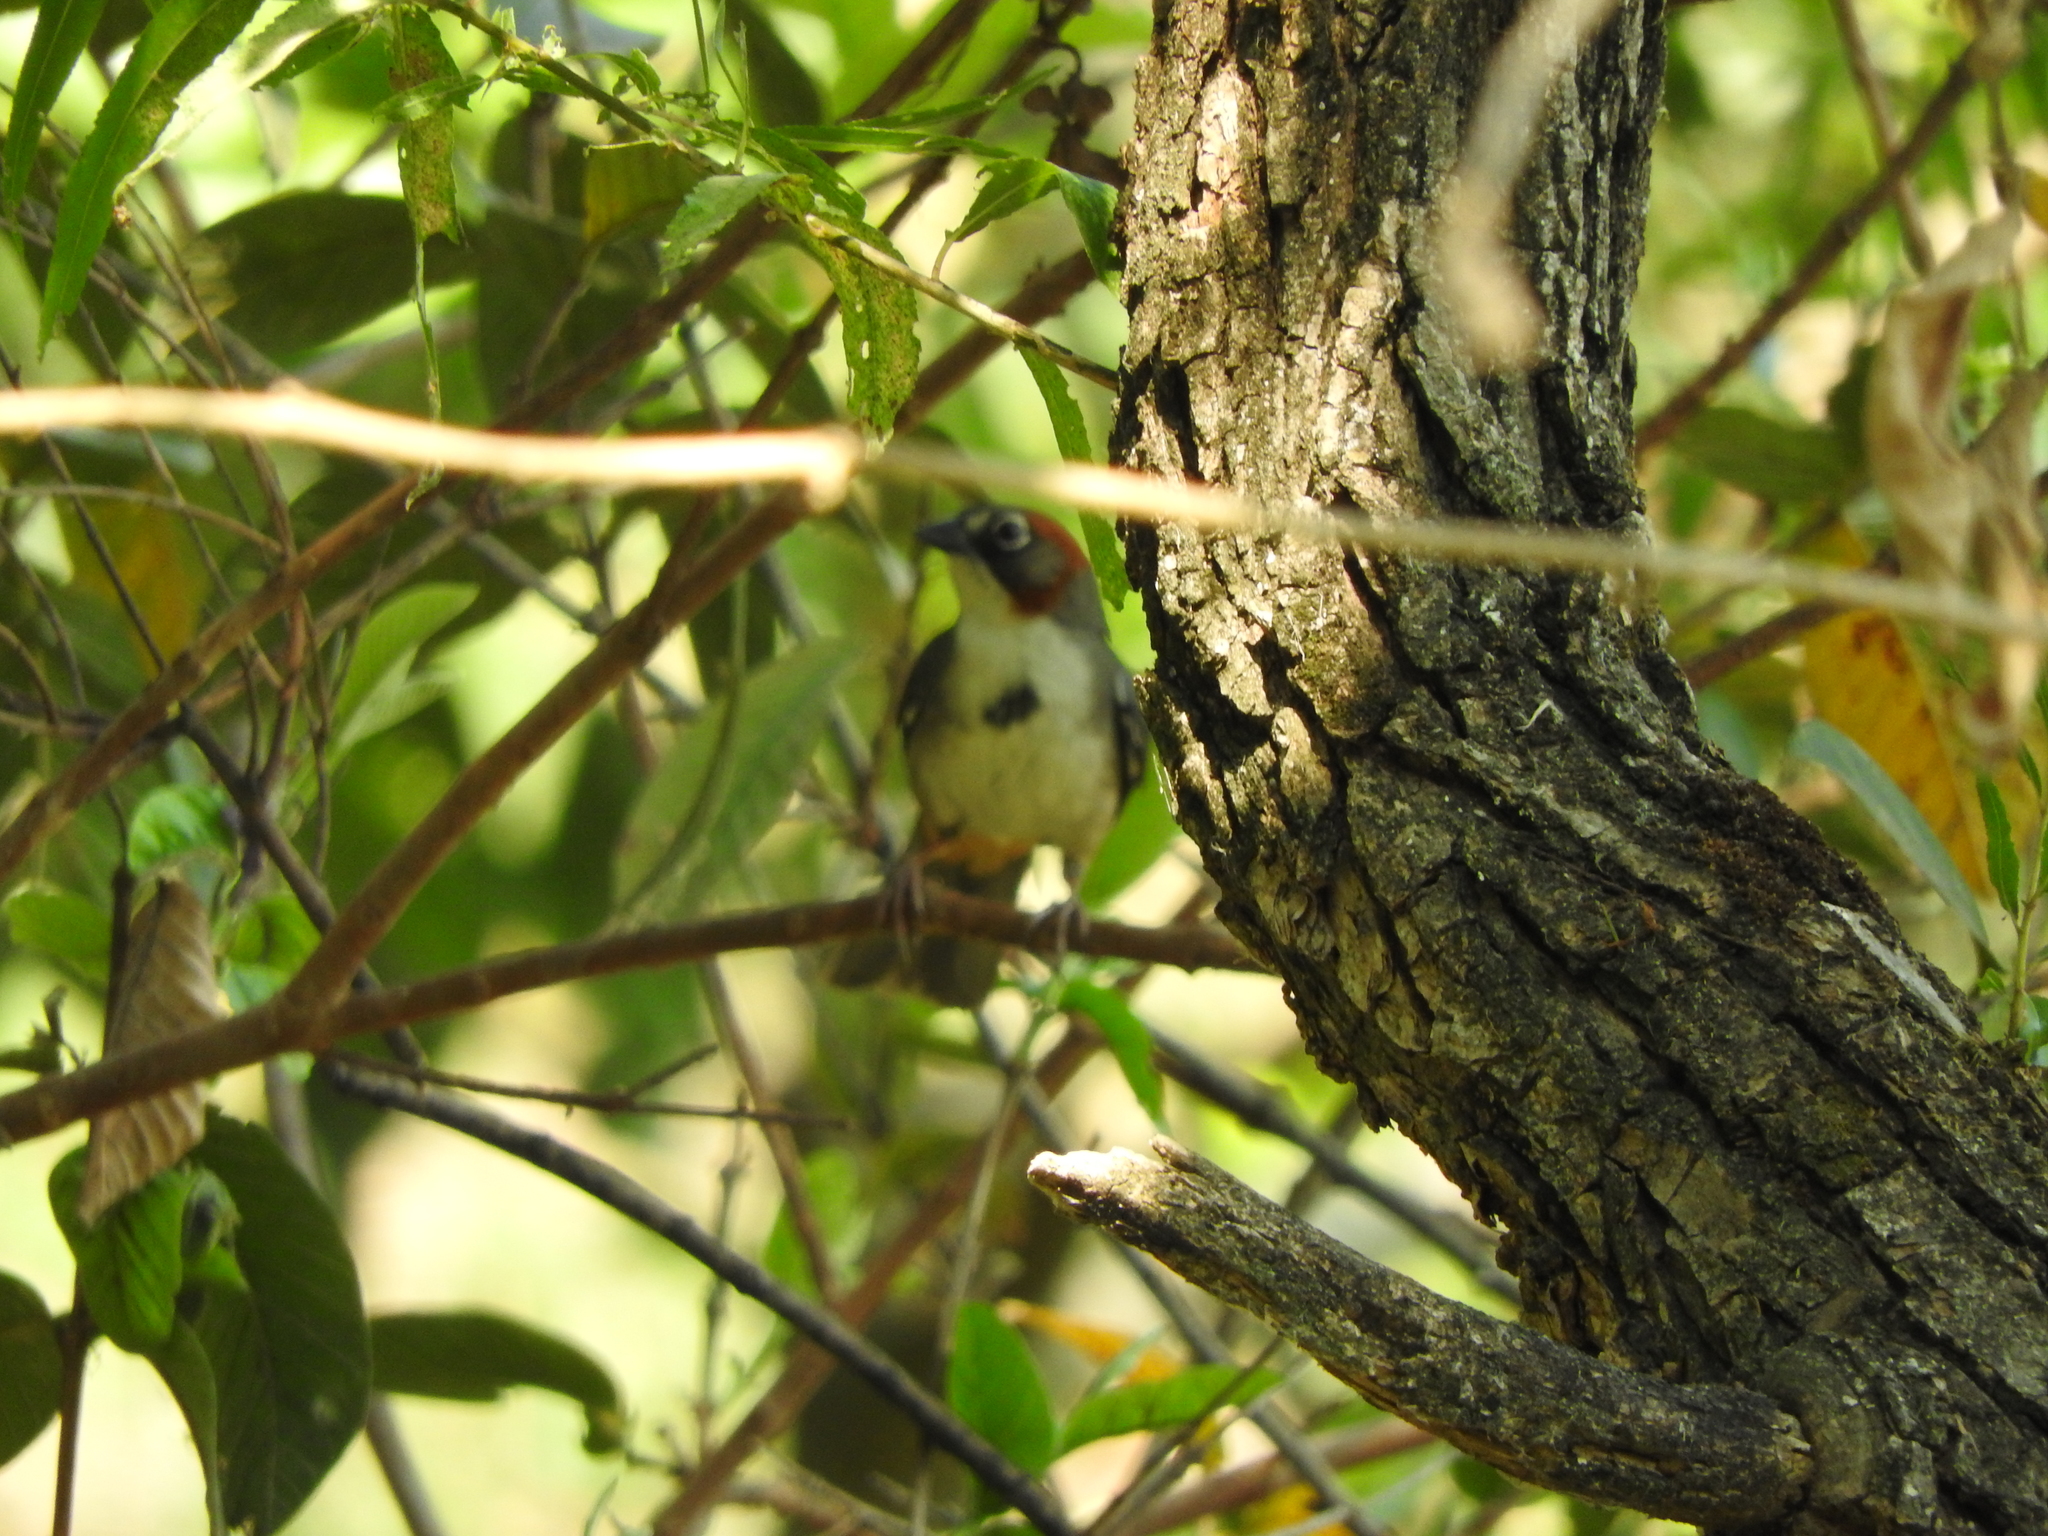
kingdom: Animalia
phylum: Chordata
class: Aves
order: Passeriformes
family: Passerellidae
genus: Melozone
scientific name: Melozone kieneri
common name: Rusty-crowned ground-sparrow
